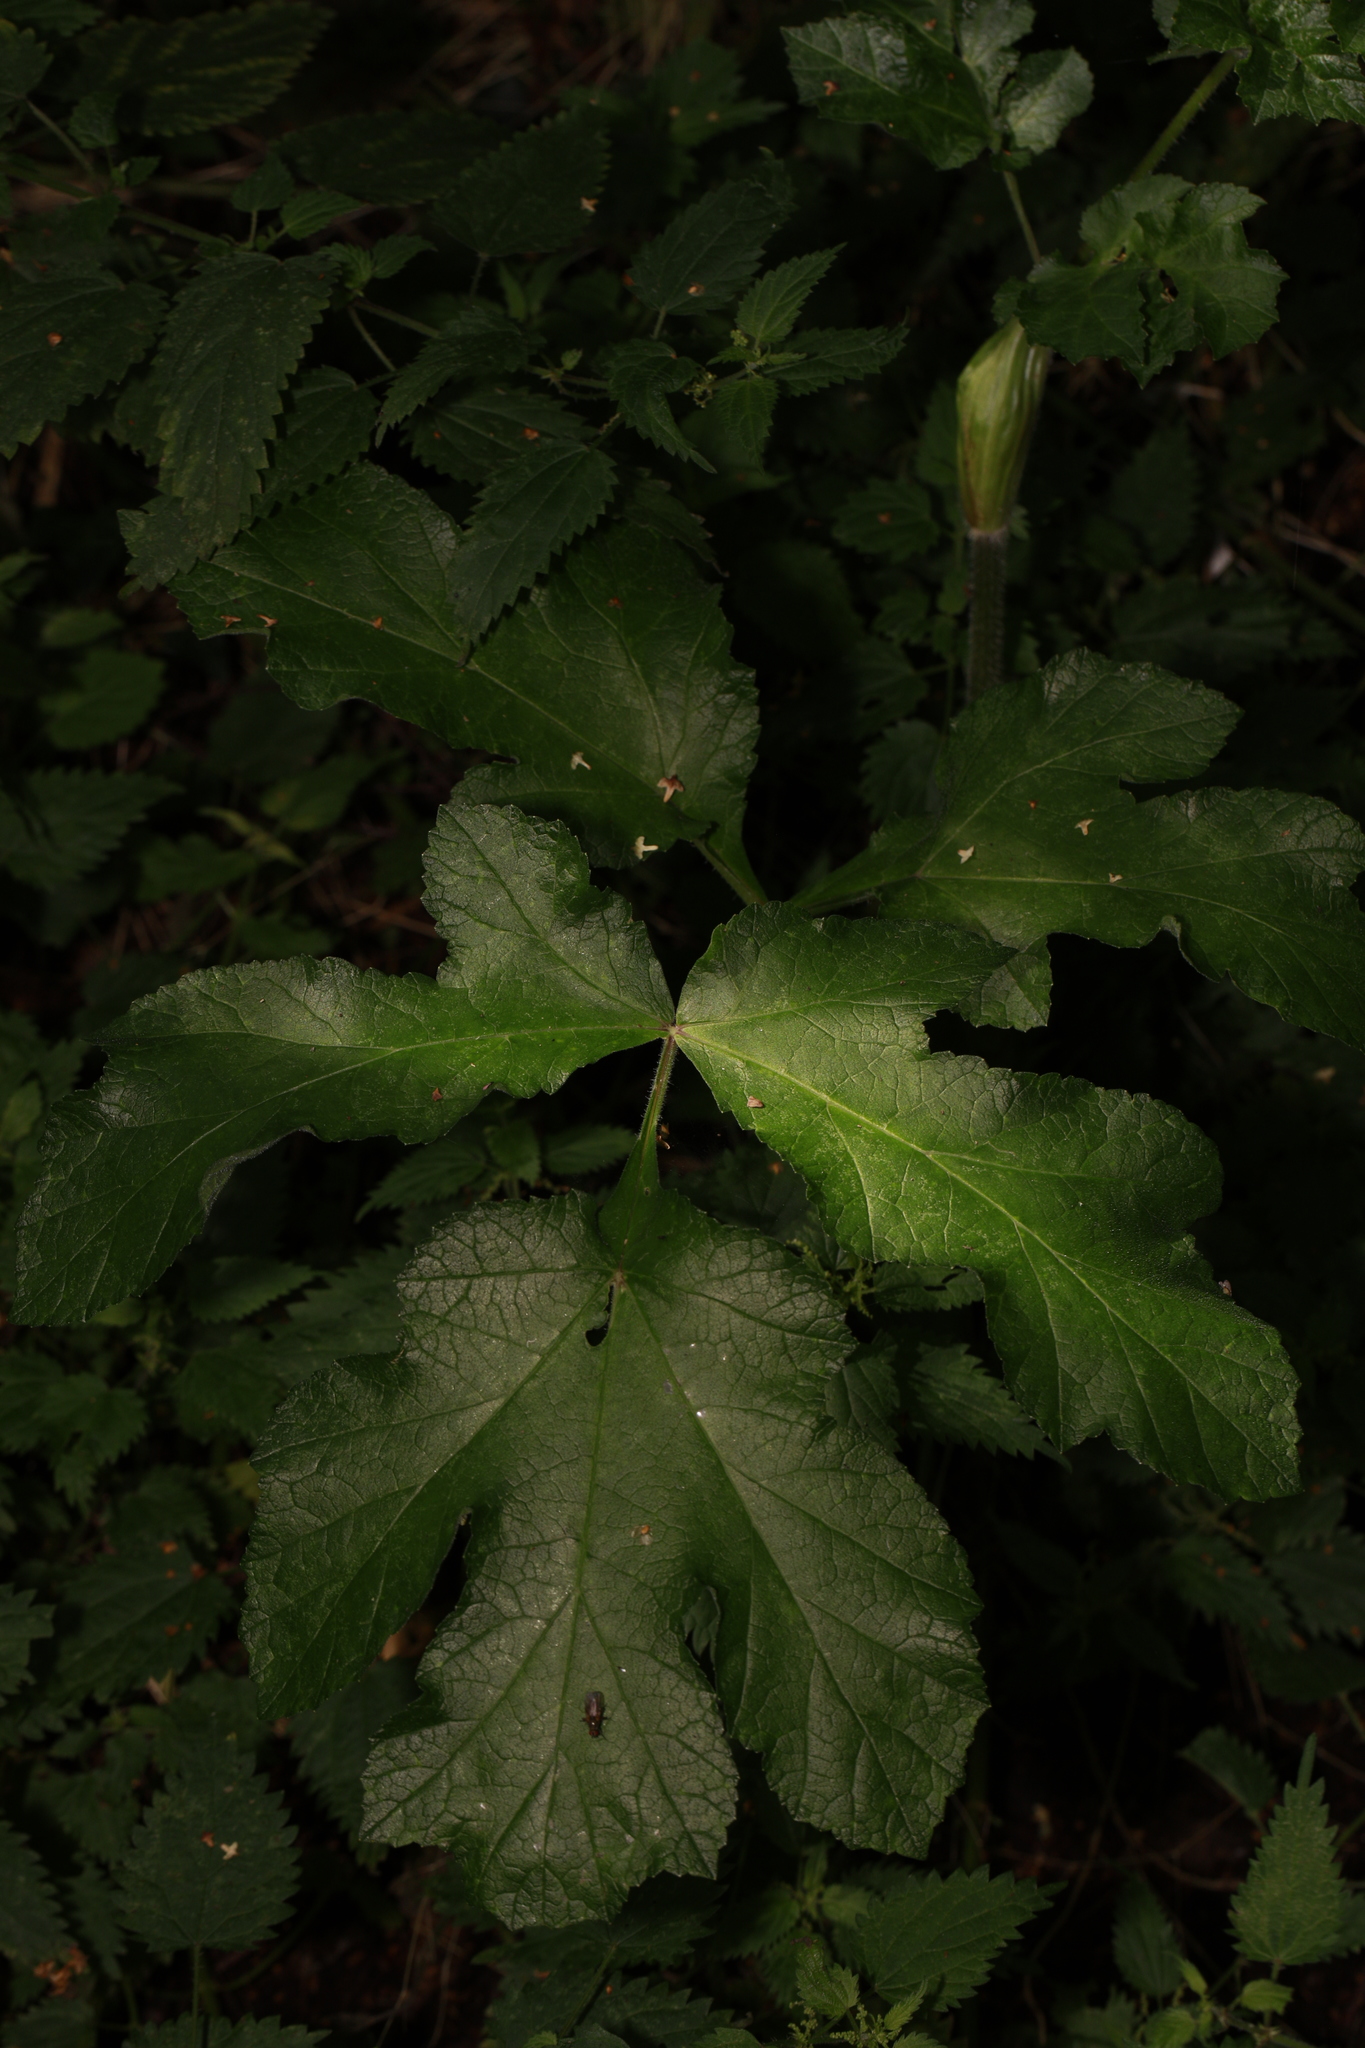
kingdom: Plantae
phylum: Tracheophyta
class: Magnoliopsida
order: Apiales
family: Apiaceae
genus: Heracleum
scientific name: Heracleum sphondylium
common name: Hogweed
